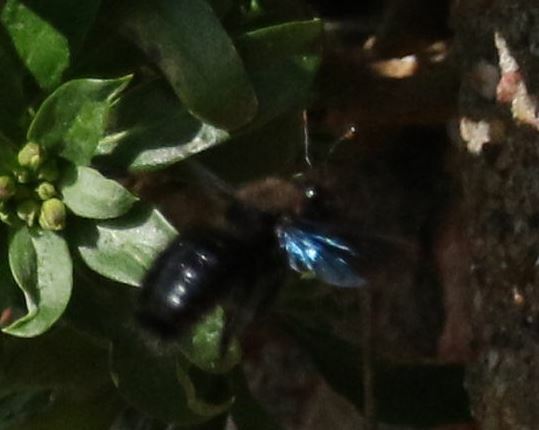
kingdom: Animalia
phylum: Arthropoda
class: Insecta
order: Hymenoptera
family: Apidae
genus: Xylocopa
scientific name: Xylocopa violacea
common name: Violet carpenter bee
